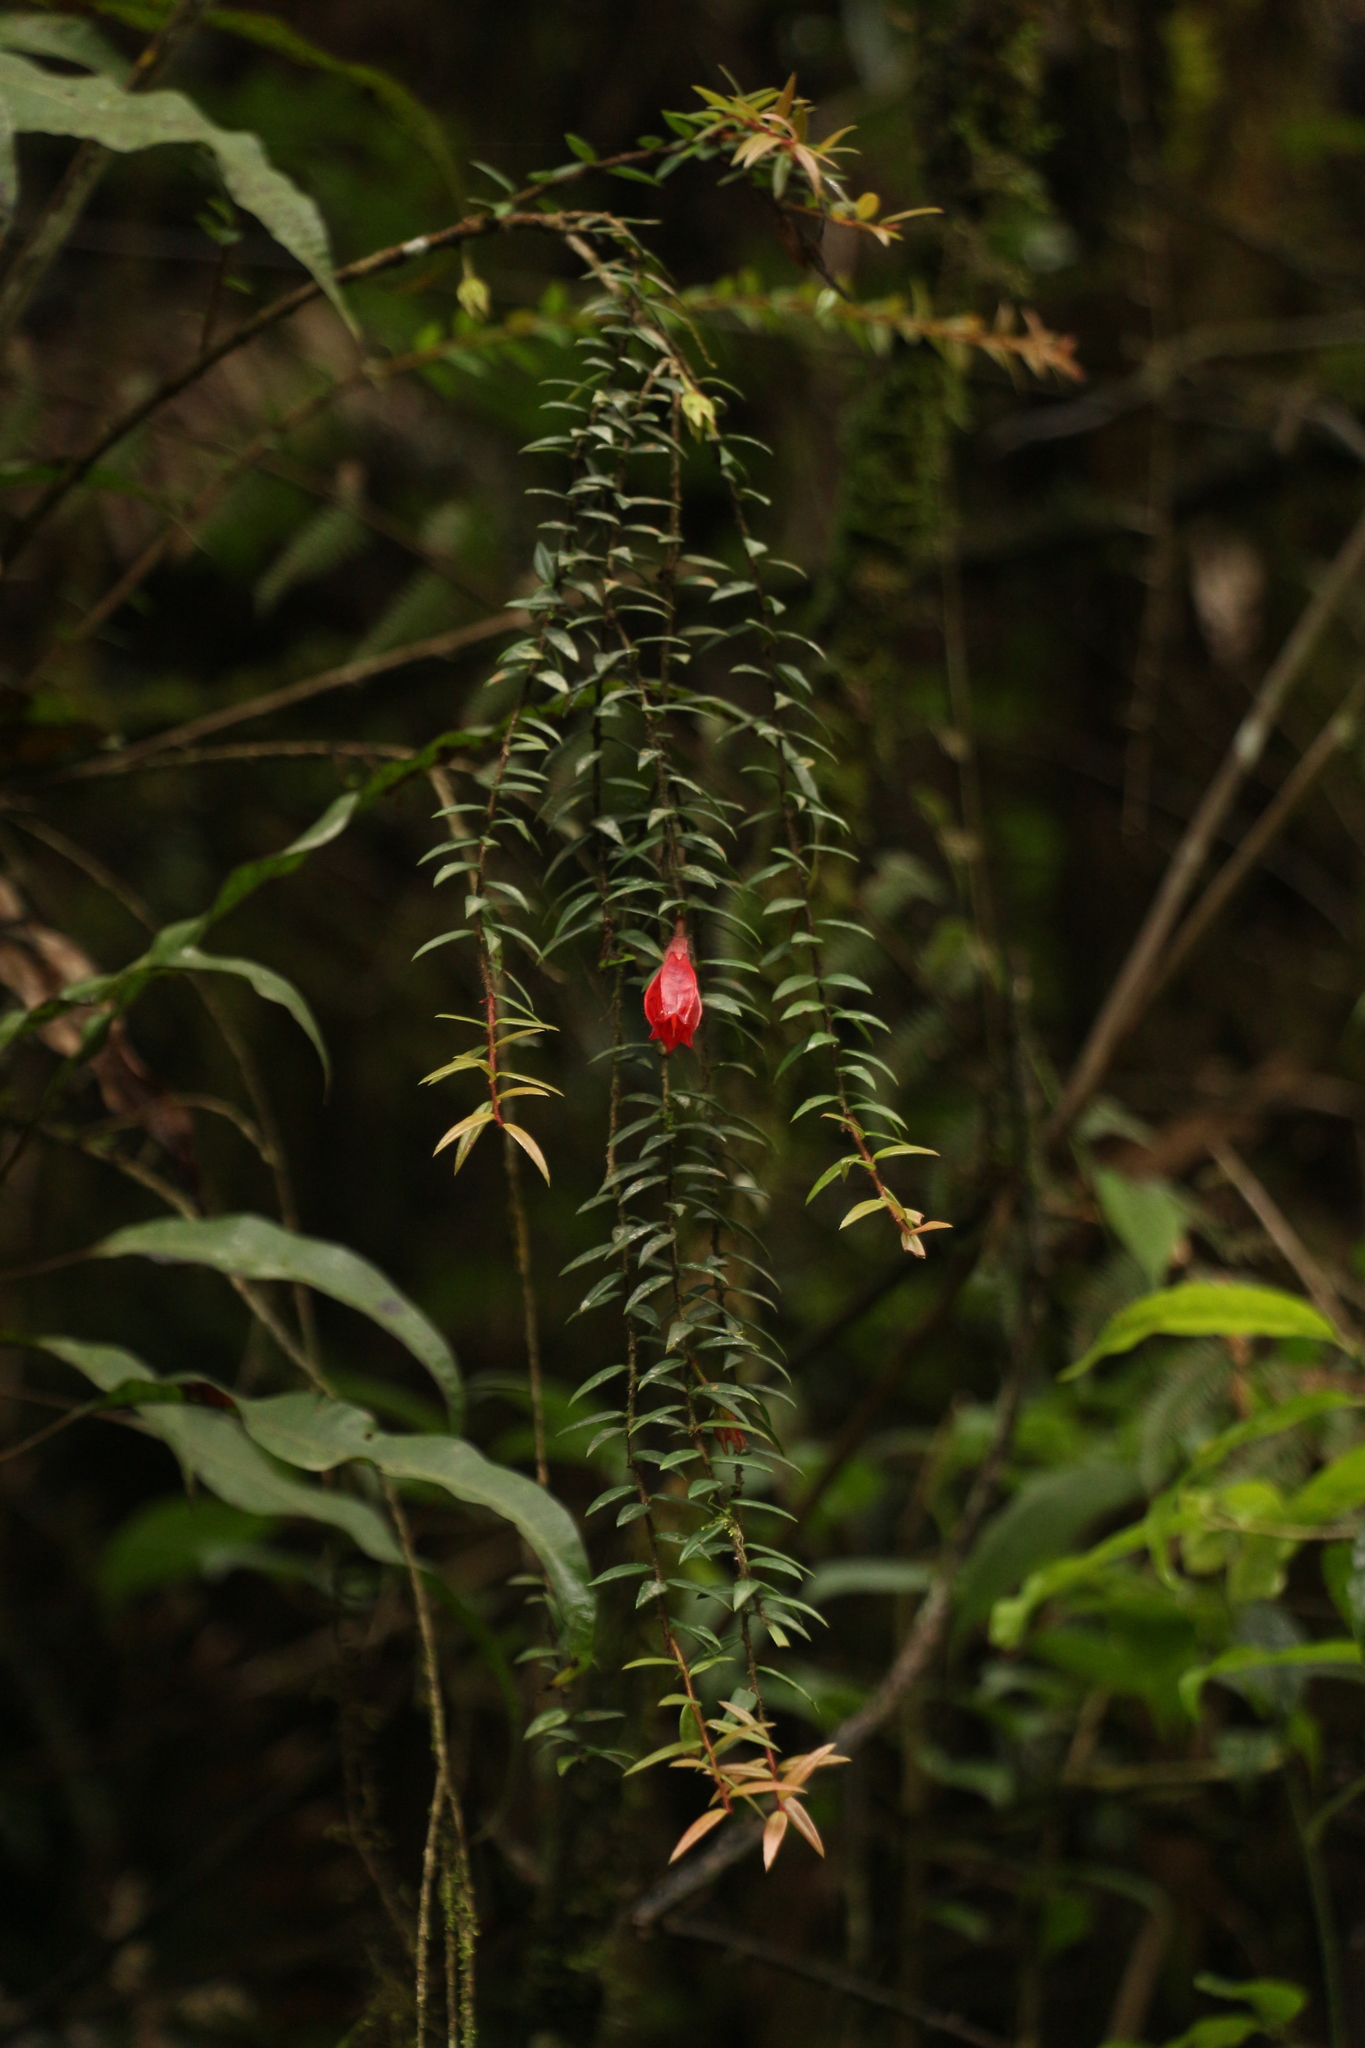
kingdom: Plantae
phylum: Tracheophyta
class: Magnoliopsida
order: Ericales
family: Ericaceae
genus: Agapetes
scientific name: Agapetes serpens
